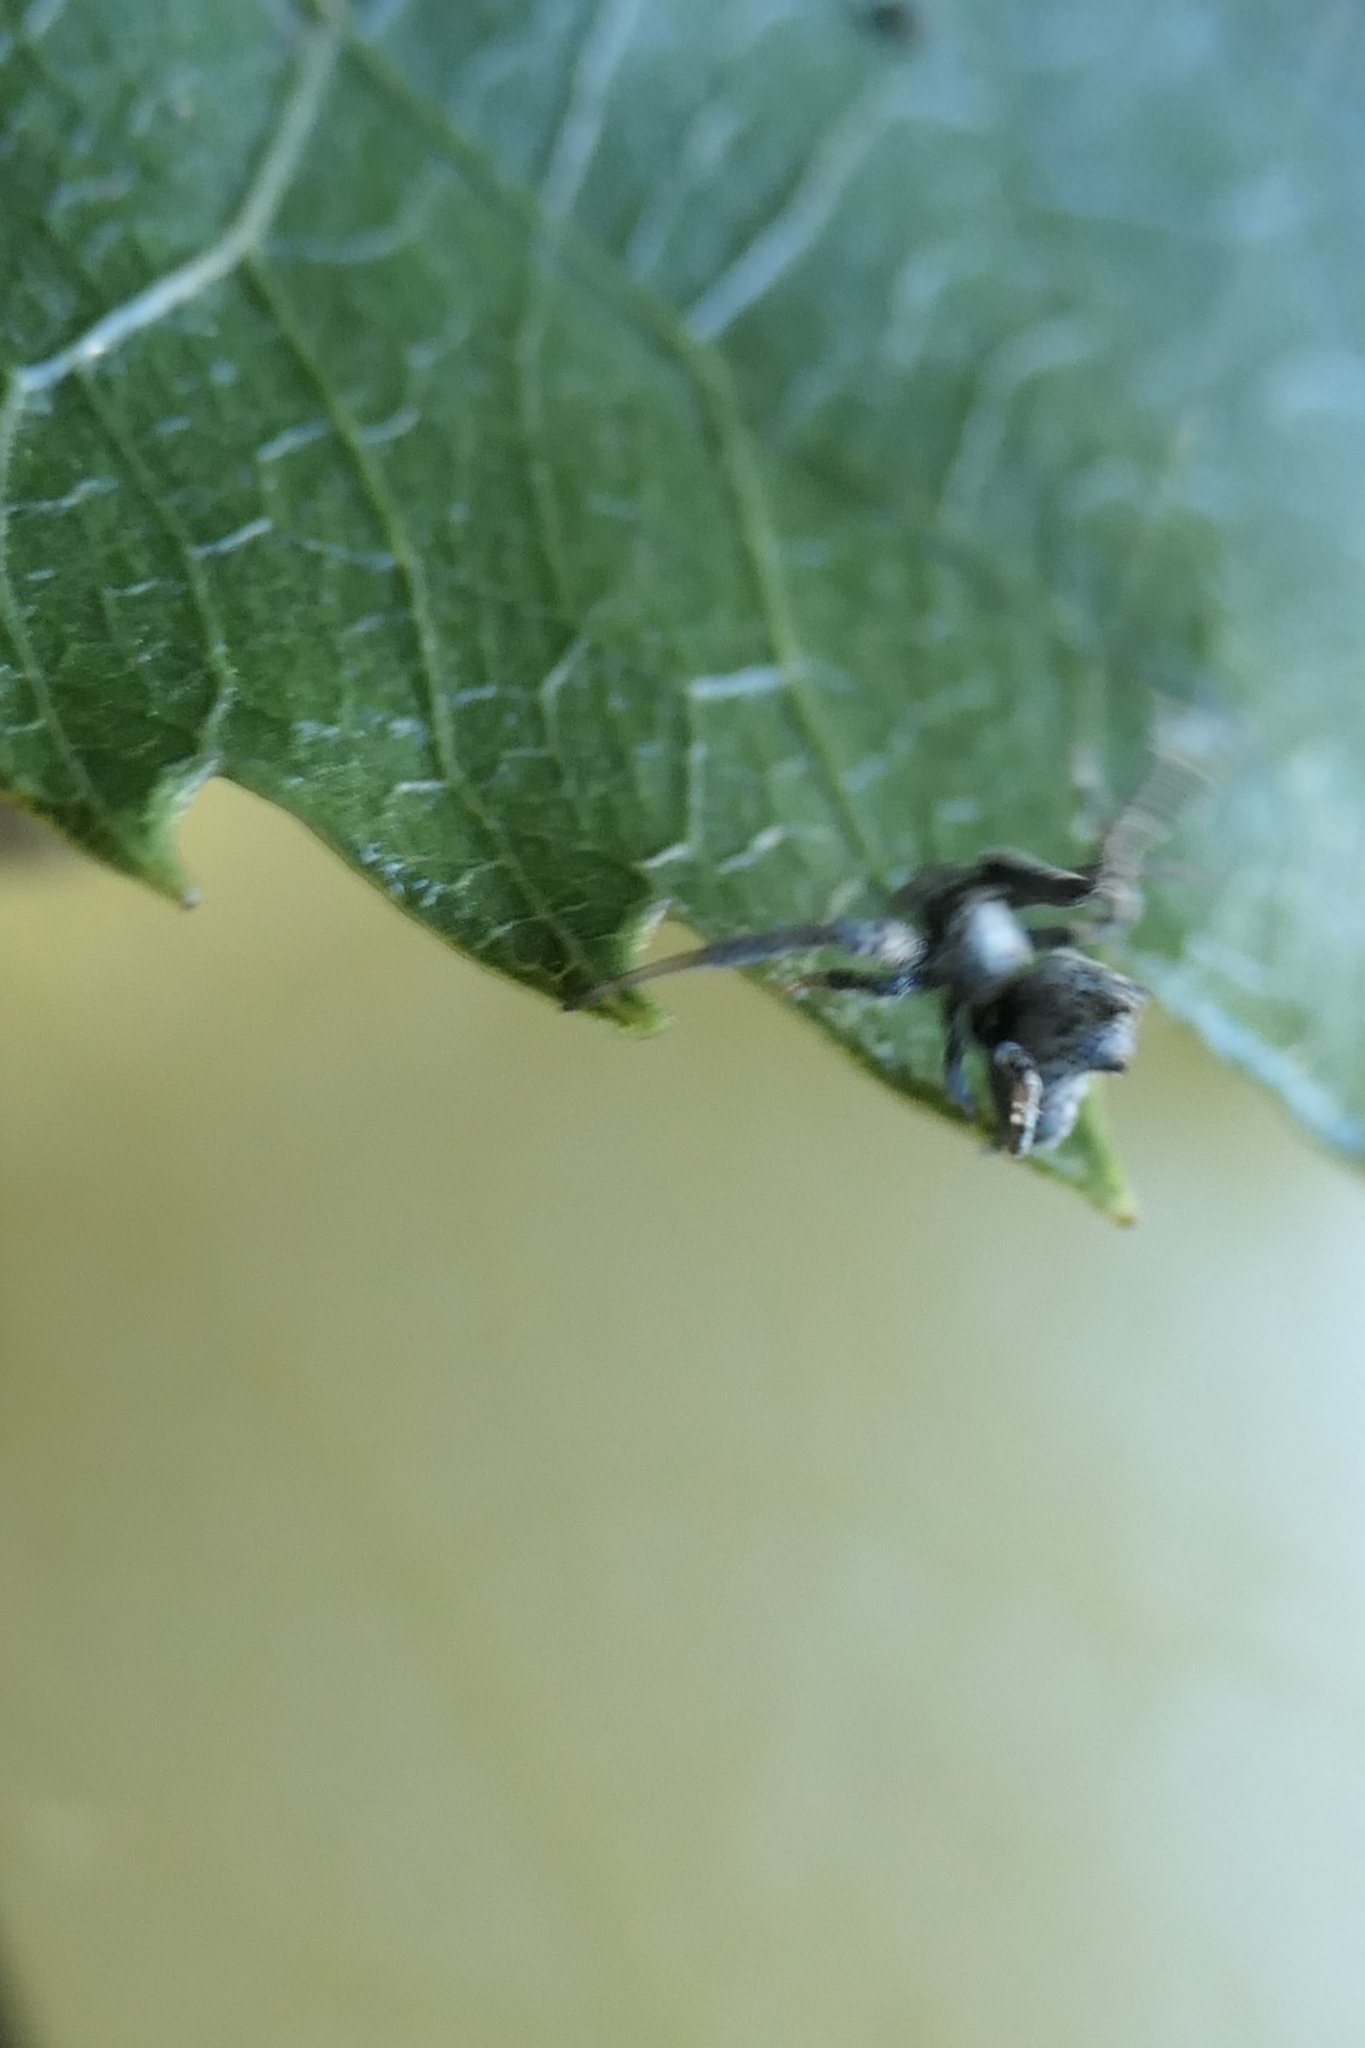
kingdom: Animalia
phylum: Arthropoda
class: Arachnida
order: Araneae
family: Uloboridae
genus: Philoponella
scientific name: Philoponella congregabilis
